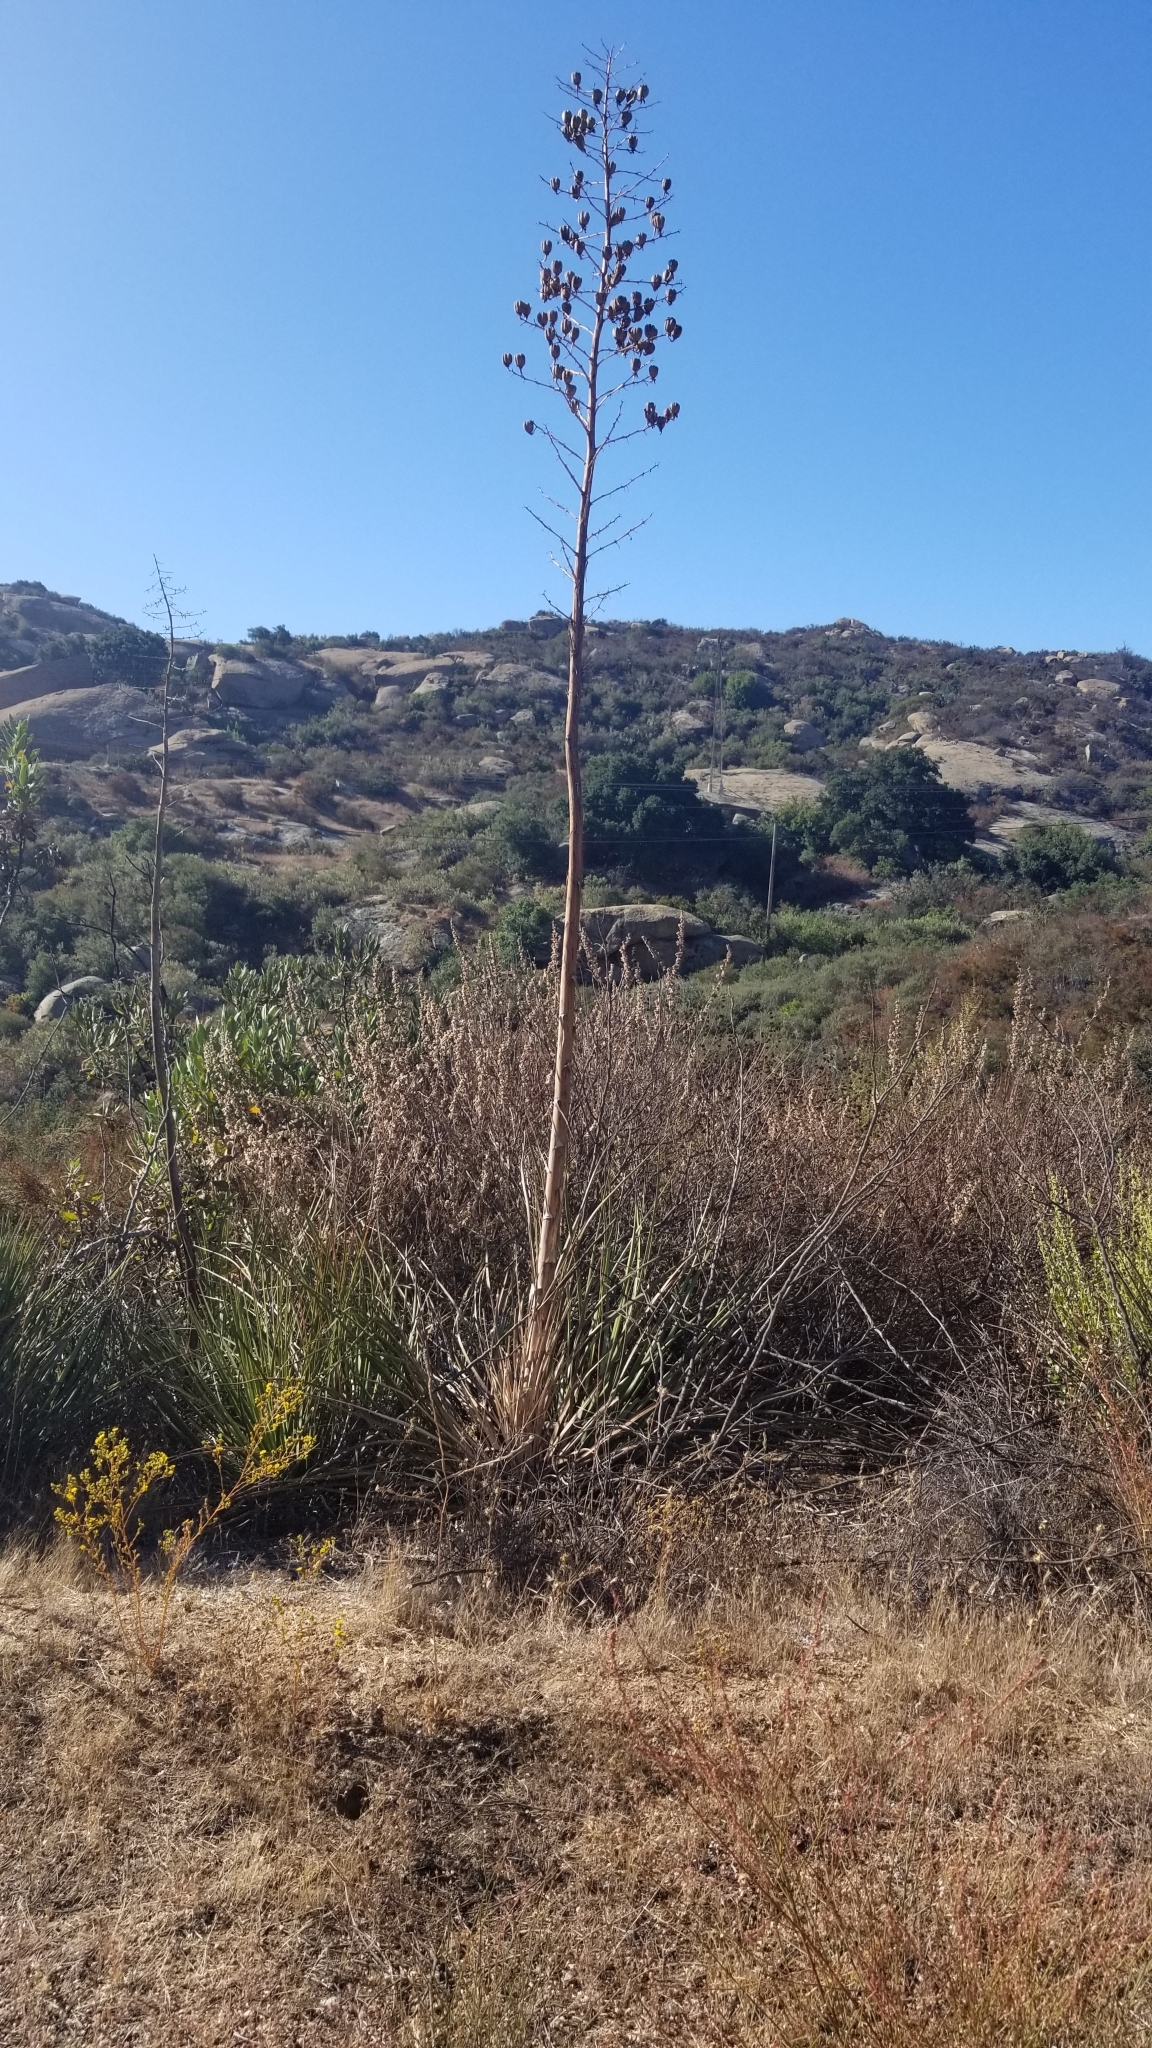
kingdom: Plantae
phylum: Tracheophyta
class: Liliopsida
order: Asparagales
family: Asparagaceae
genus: Hesperoyucca
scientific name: Hesperoyucca whipplei
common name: Our lord's-candle
